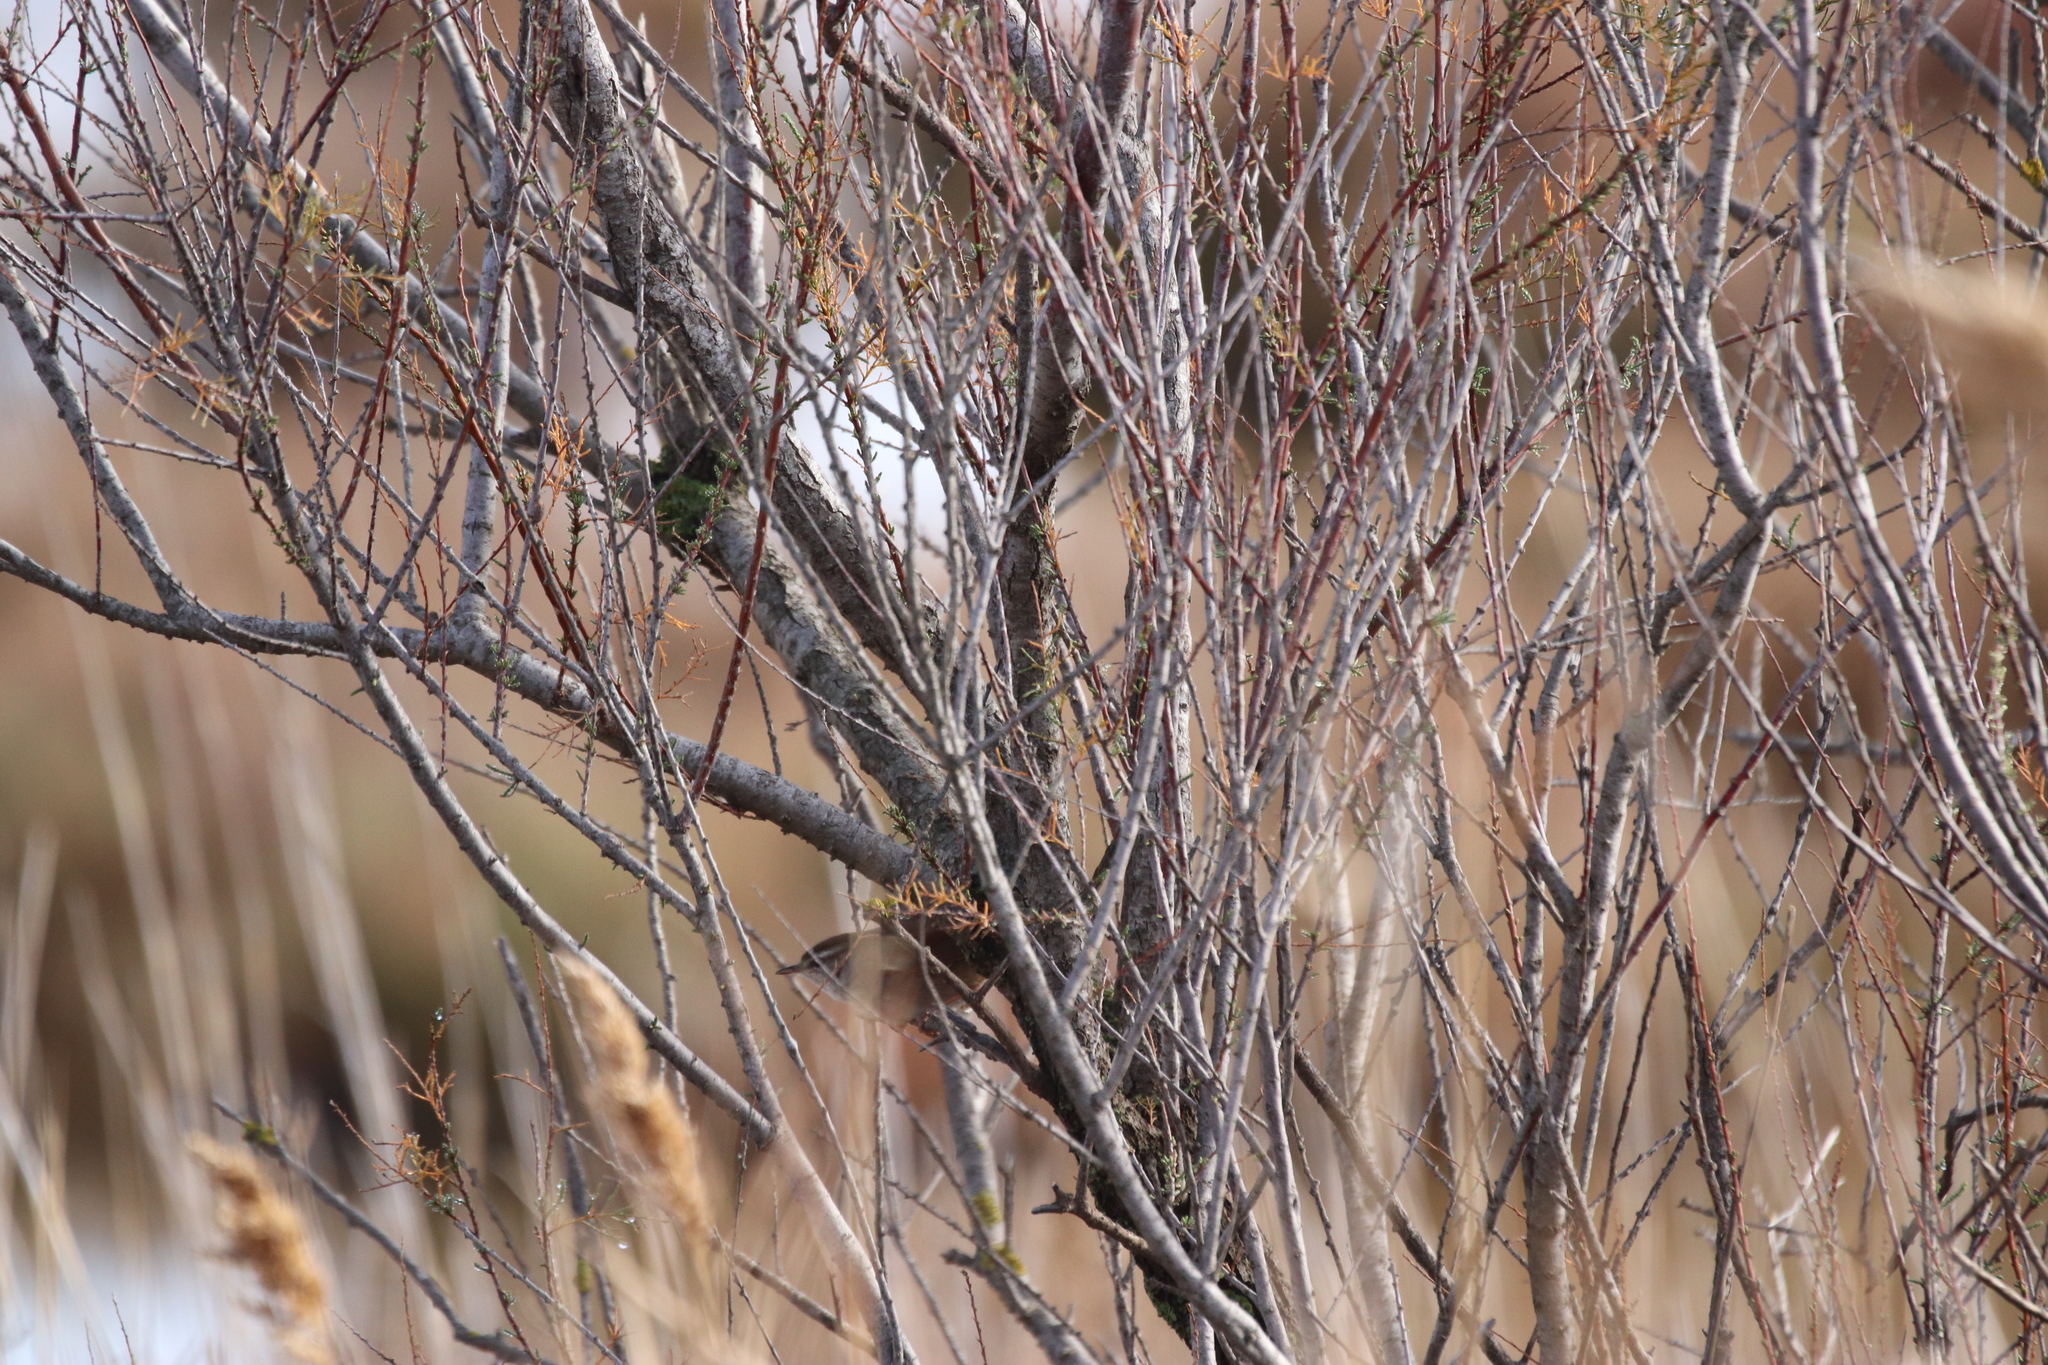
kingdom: Animalia
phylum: Chordata
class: Aves
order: Passeriformes
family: Cettiidae
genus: Cettia
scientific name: Cettia cetti
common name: Cetti's warbler
